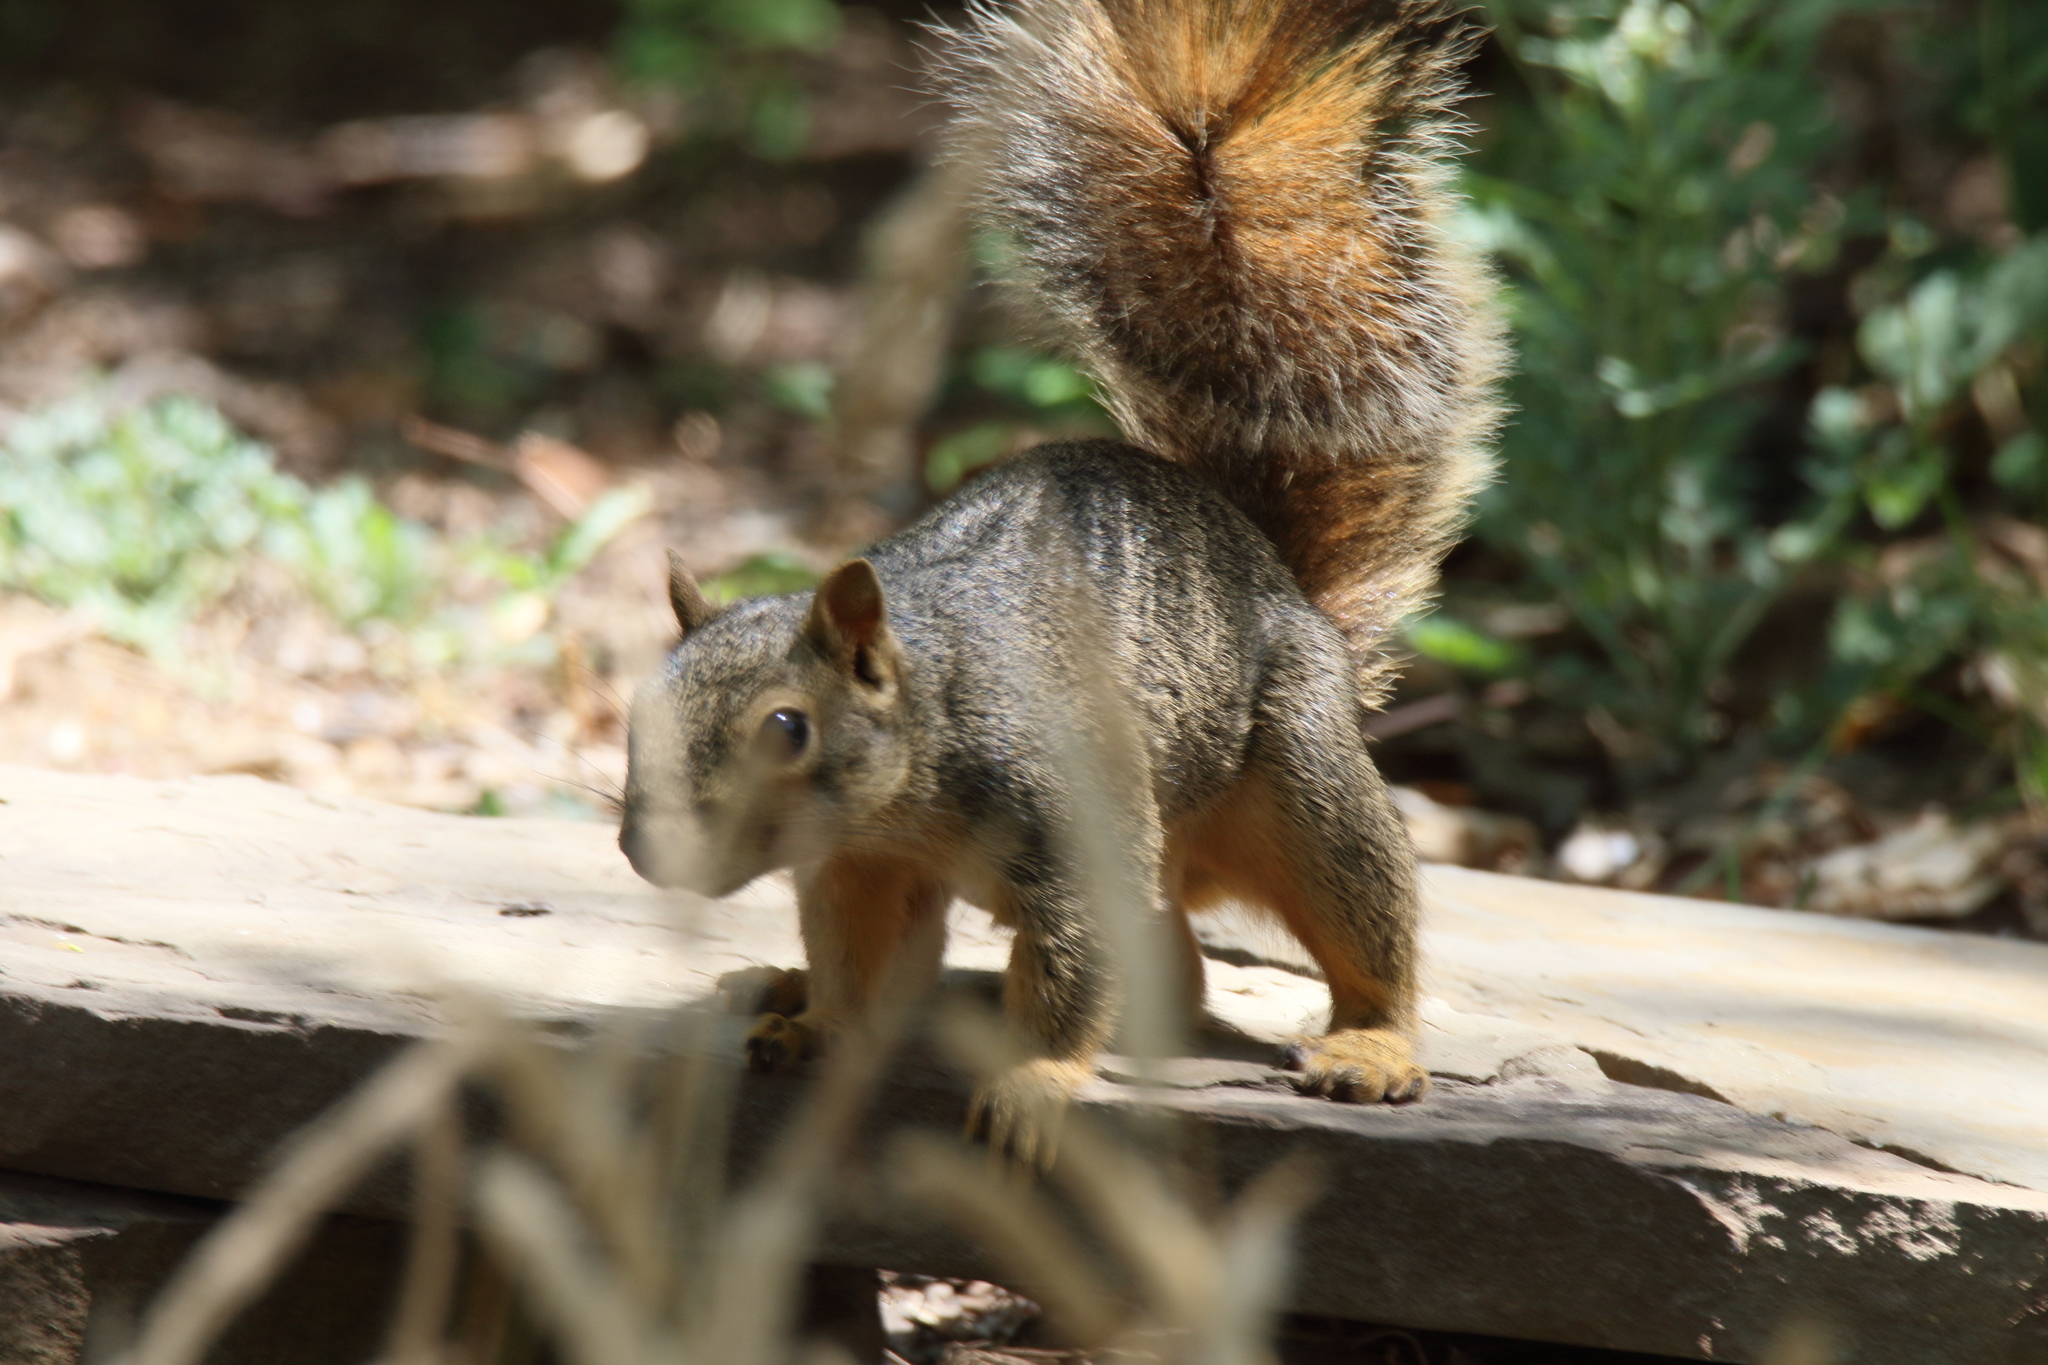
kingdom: Animalia
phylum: Chordata
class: Mammalia
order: Rodentia
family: Sciuridae
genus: Sciurus
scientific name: Sciurus niger
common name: Fox squirrel
